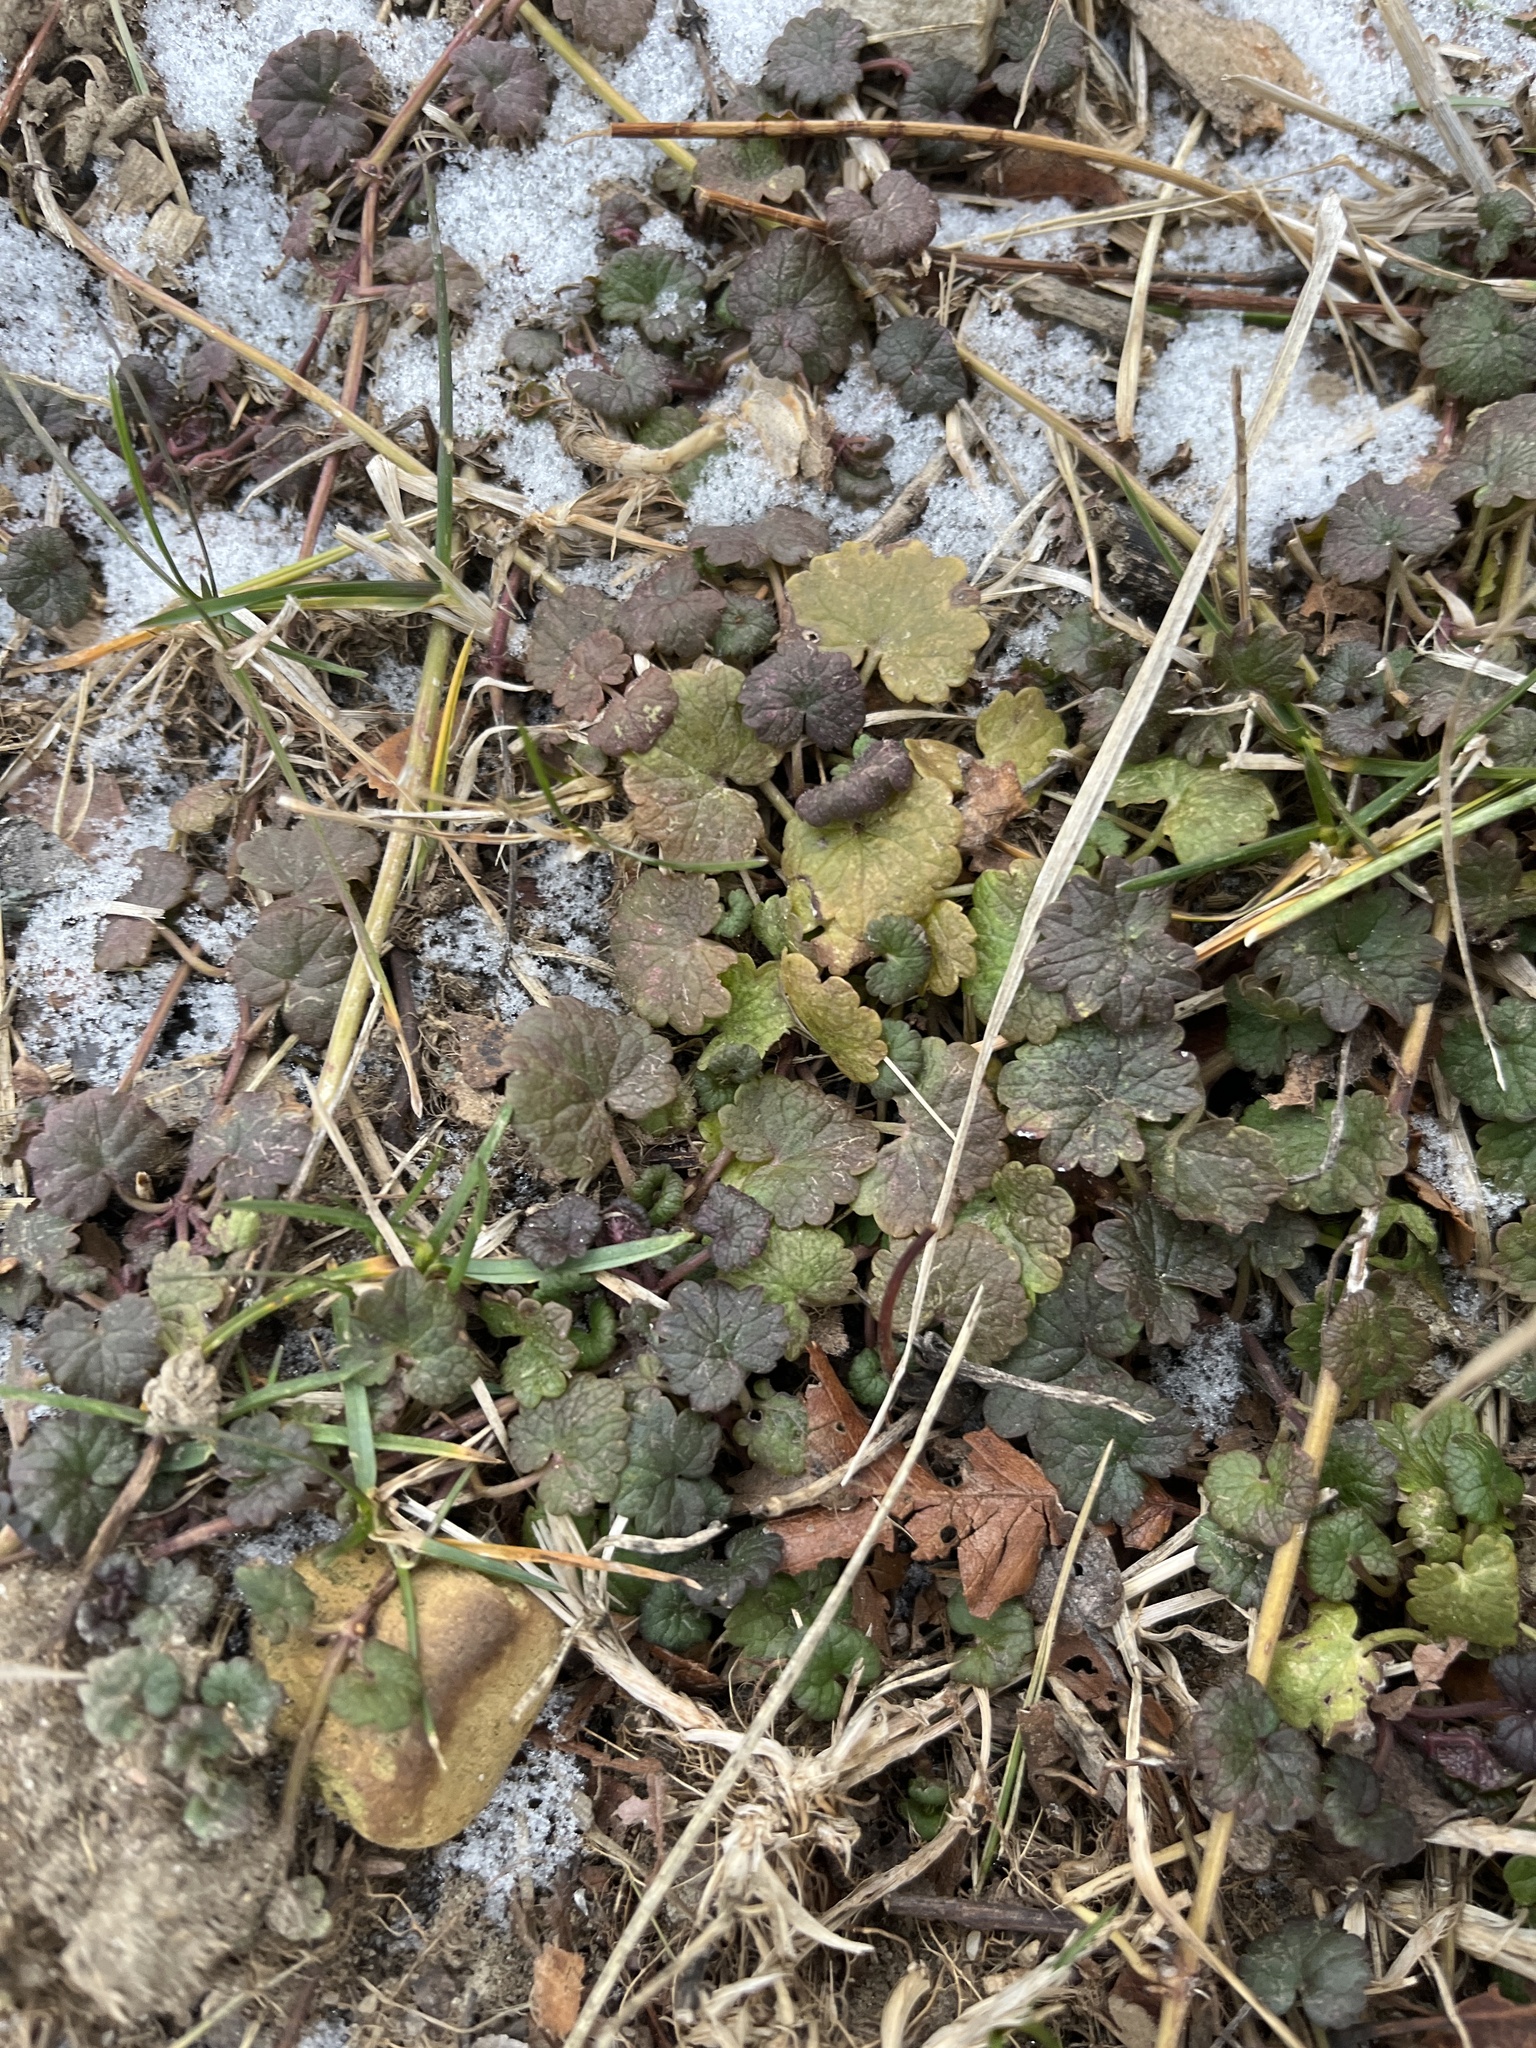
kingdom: Plantae
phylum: Tracheophyta
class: Magnoliopsida
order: Lamiales
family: Lamiaceae
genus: Glechoma
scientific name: Glechoma hederacea
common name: Ground ivy
